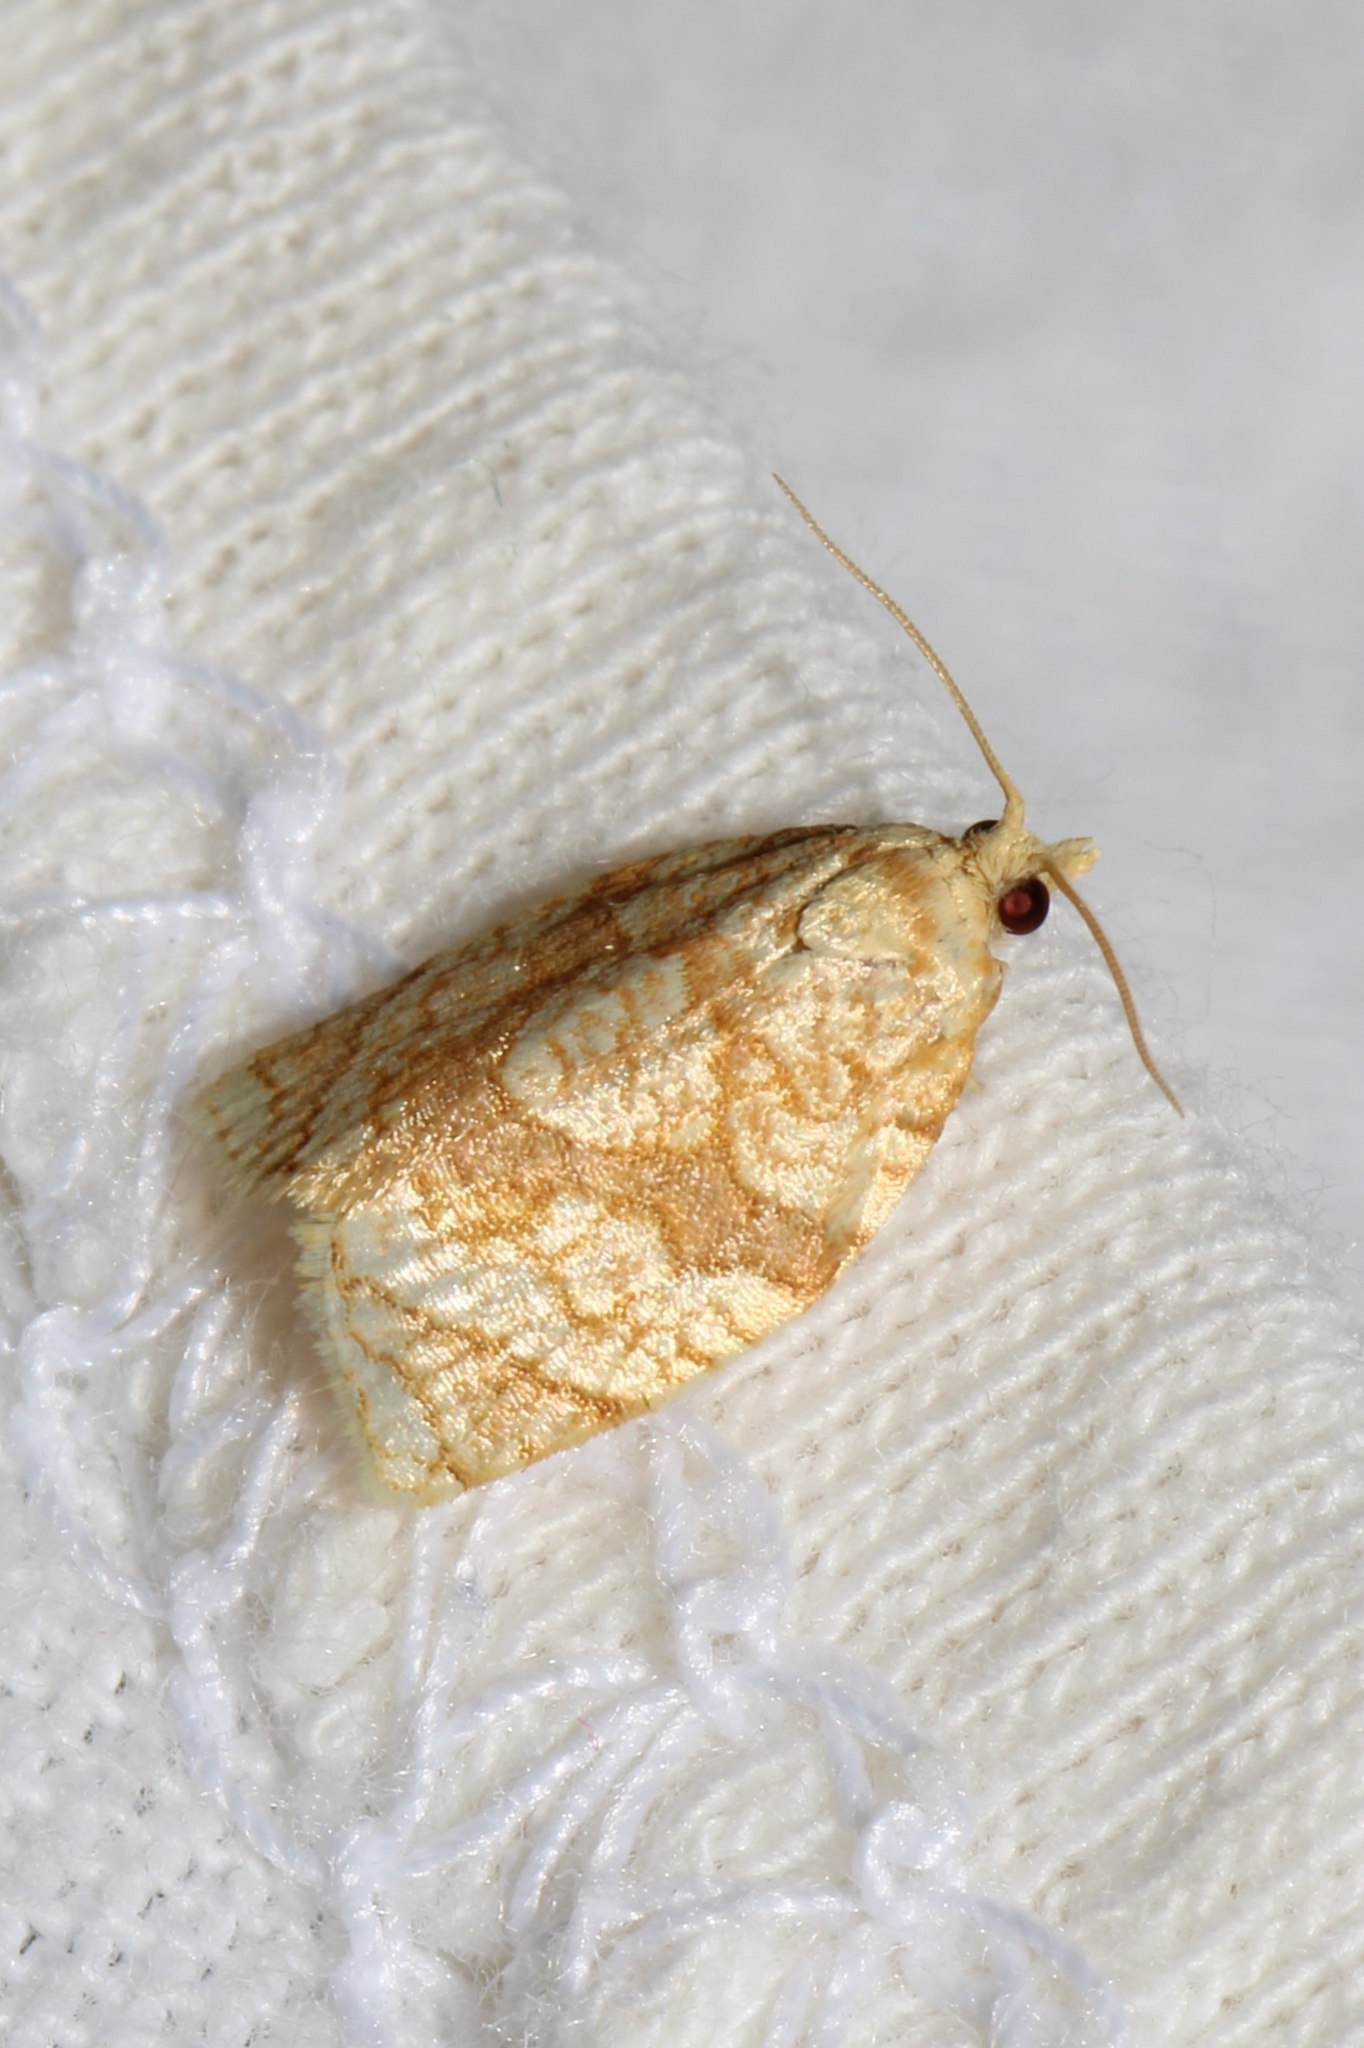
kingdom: Animalia
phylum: Arthropoda
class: Insecta
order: Lepidoptera
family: Tortricidae
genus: Adoxophyes
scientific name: Adoxophyes negundana
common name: Shimmering gold adoxophyes moth
